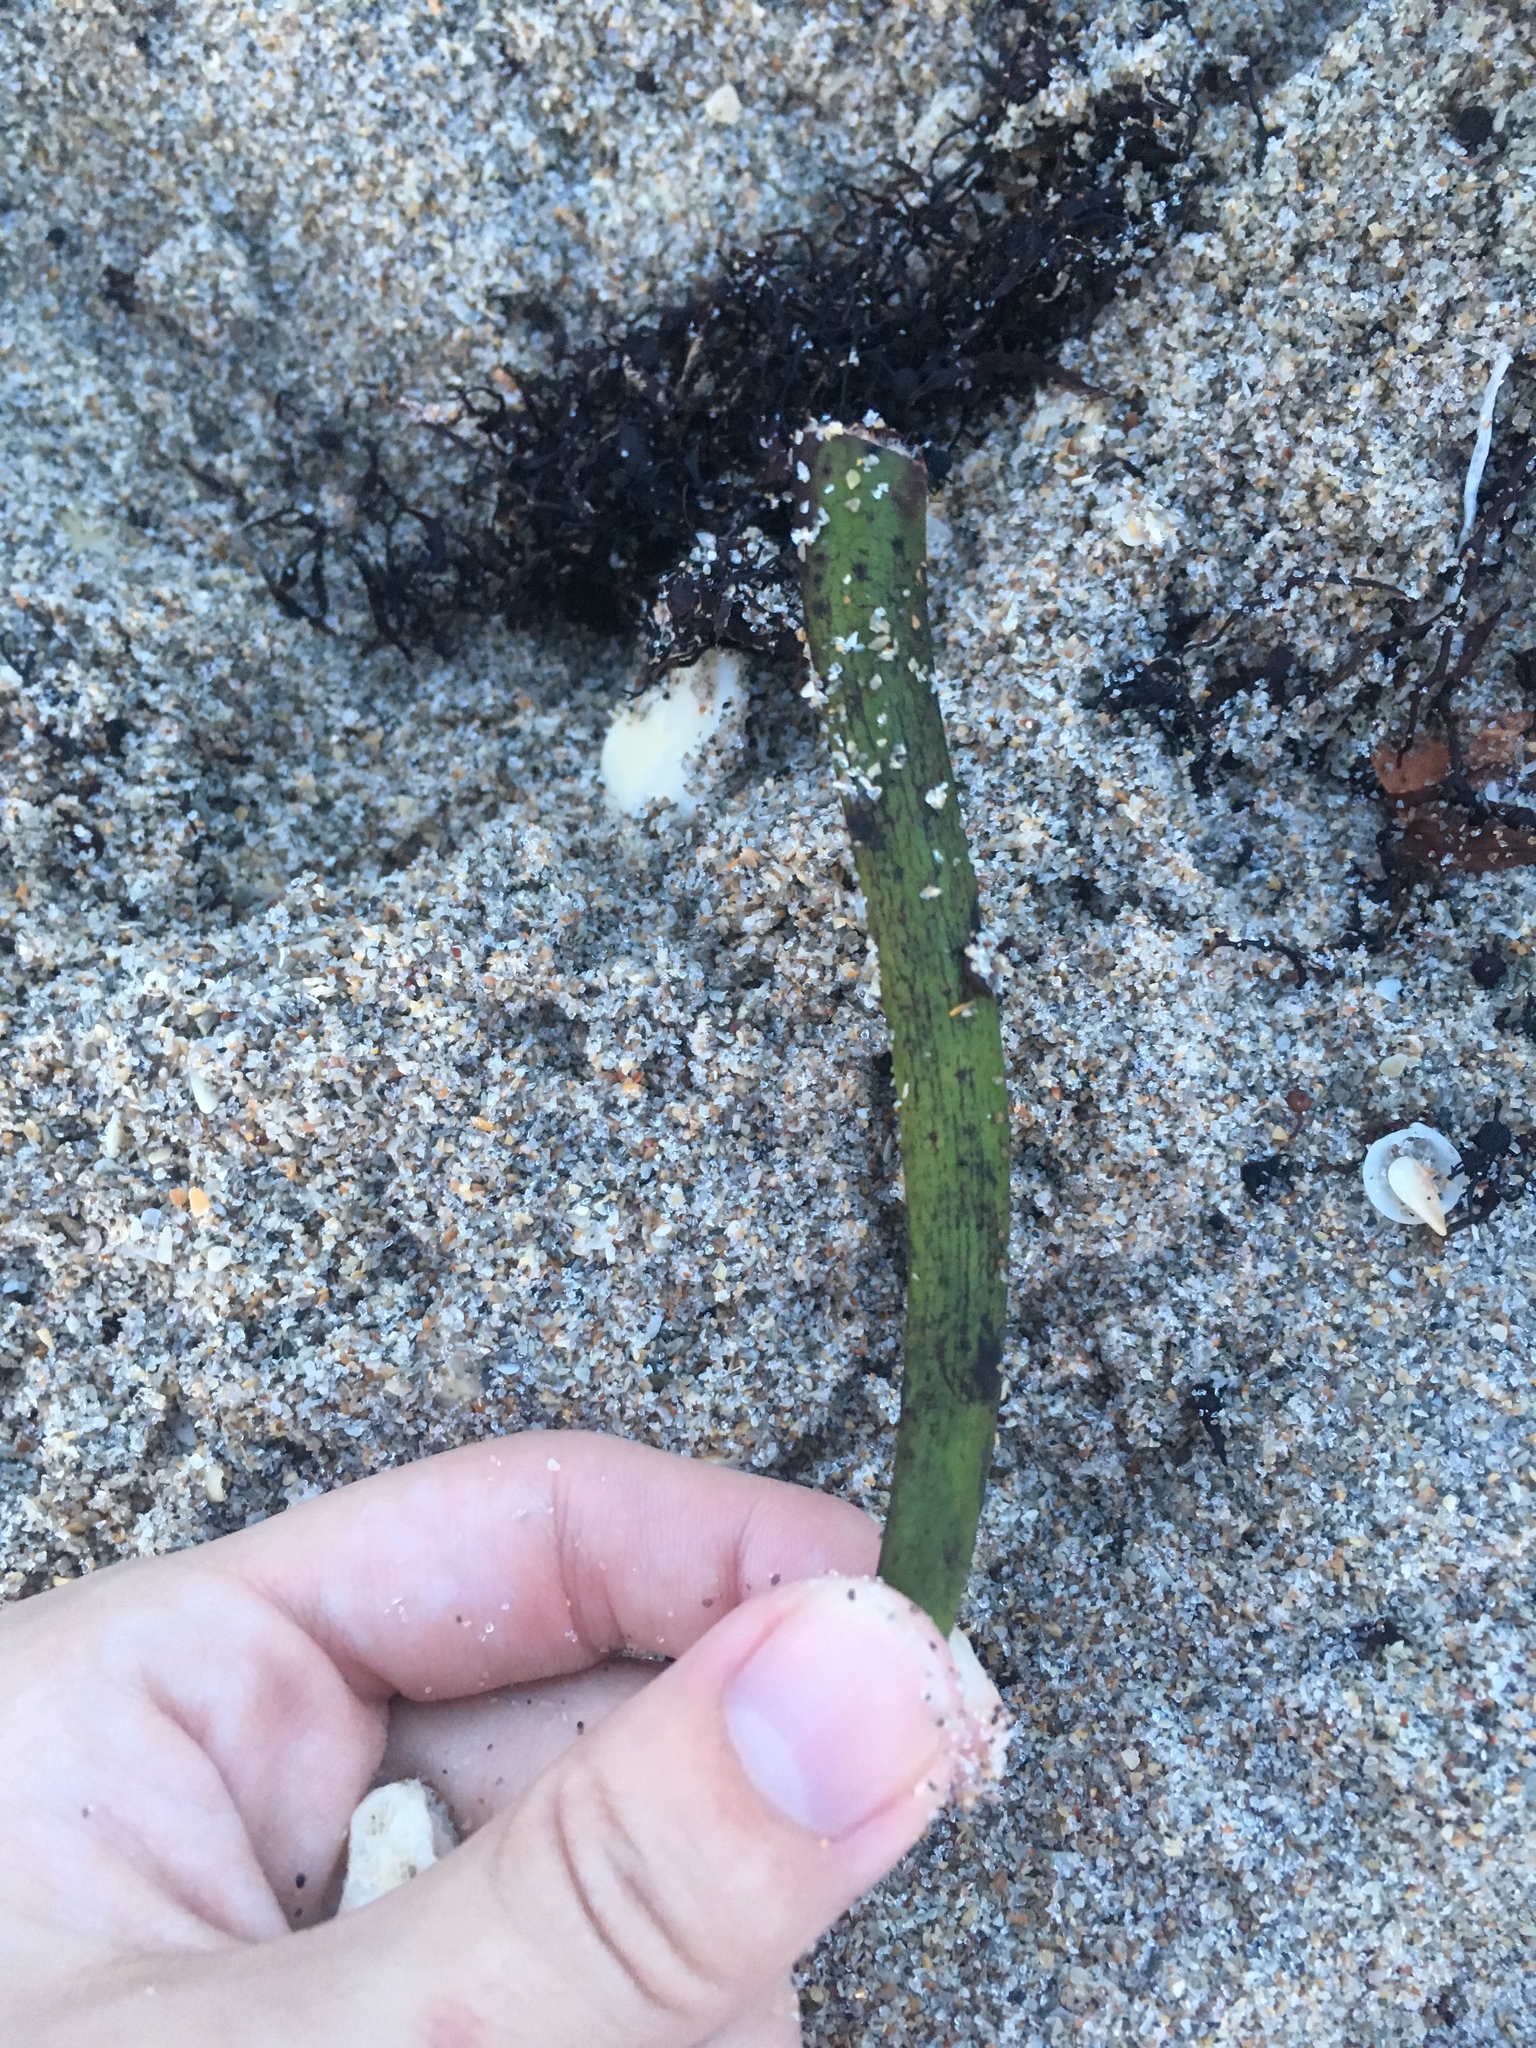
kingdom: Plantae
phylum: Tracheophyta
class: Magnoliopsida
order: Malpighiales
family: Rhizophoraceae
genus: Rhizophora
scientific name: Rhizophora mangle
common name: Red mangrove
